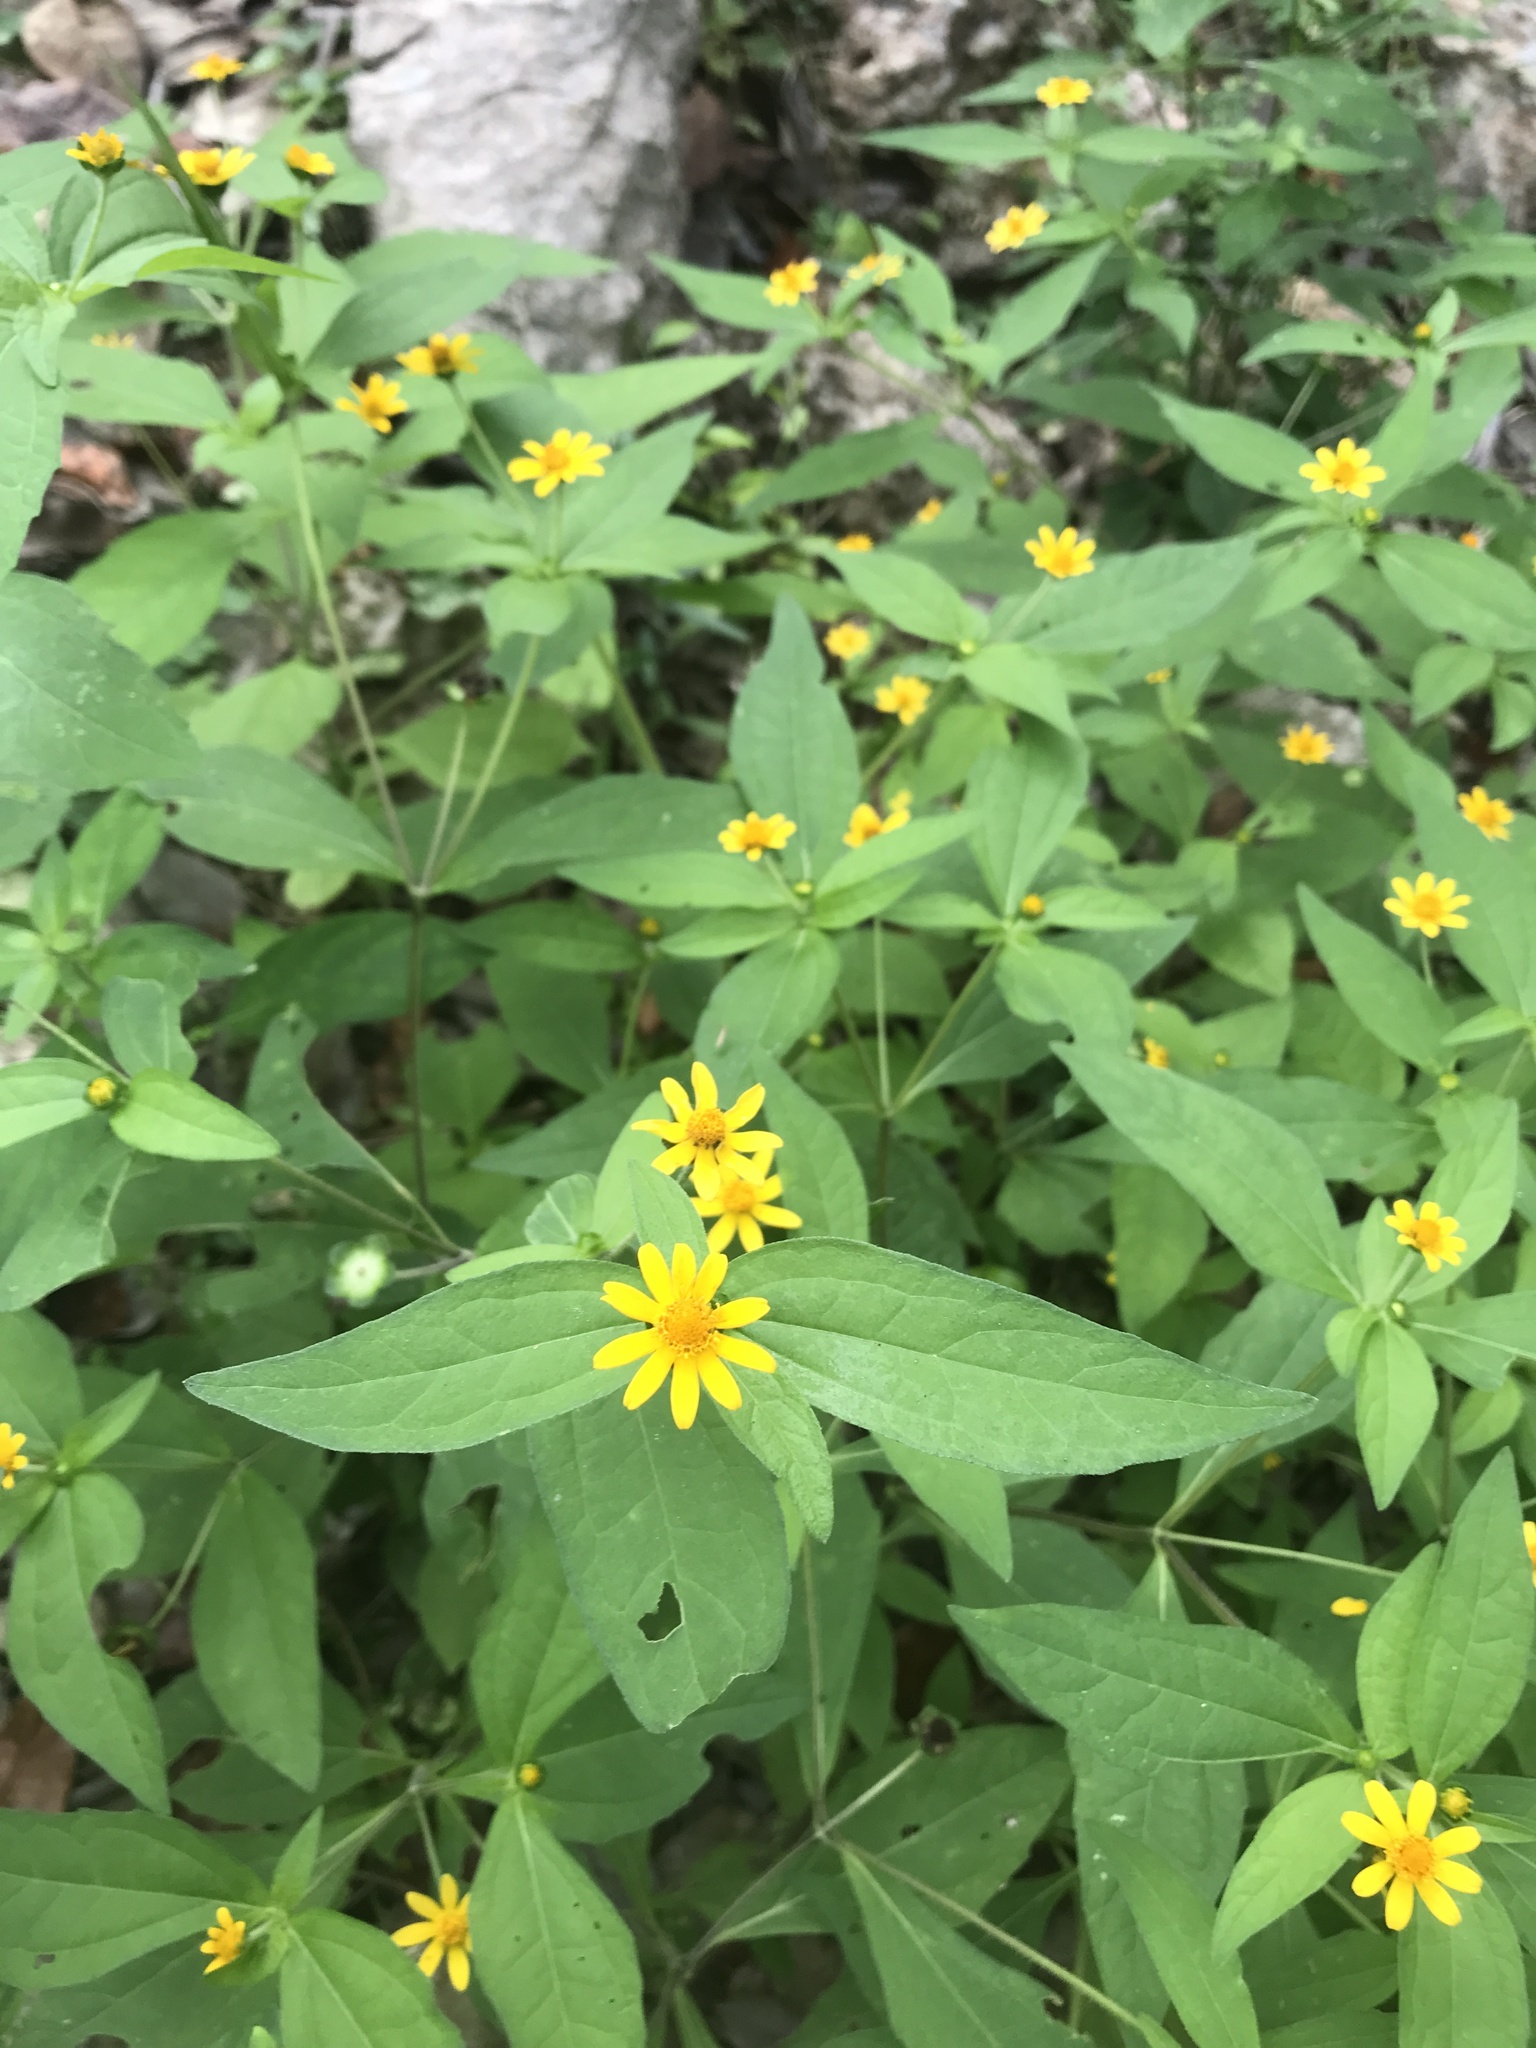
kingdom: Plantae
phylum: Tracheophyta
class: Magnoliopsida
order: Asterales
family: Asteraceae
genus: Melampodium
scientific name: Melampodium divaricatum
